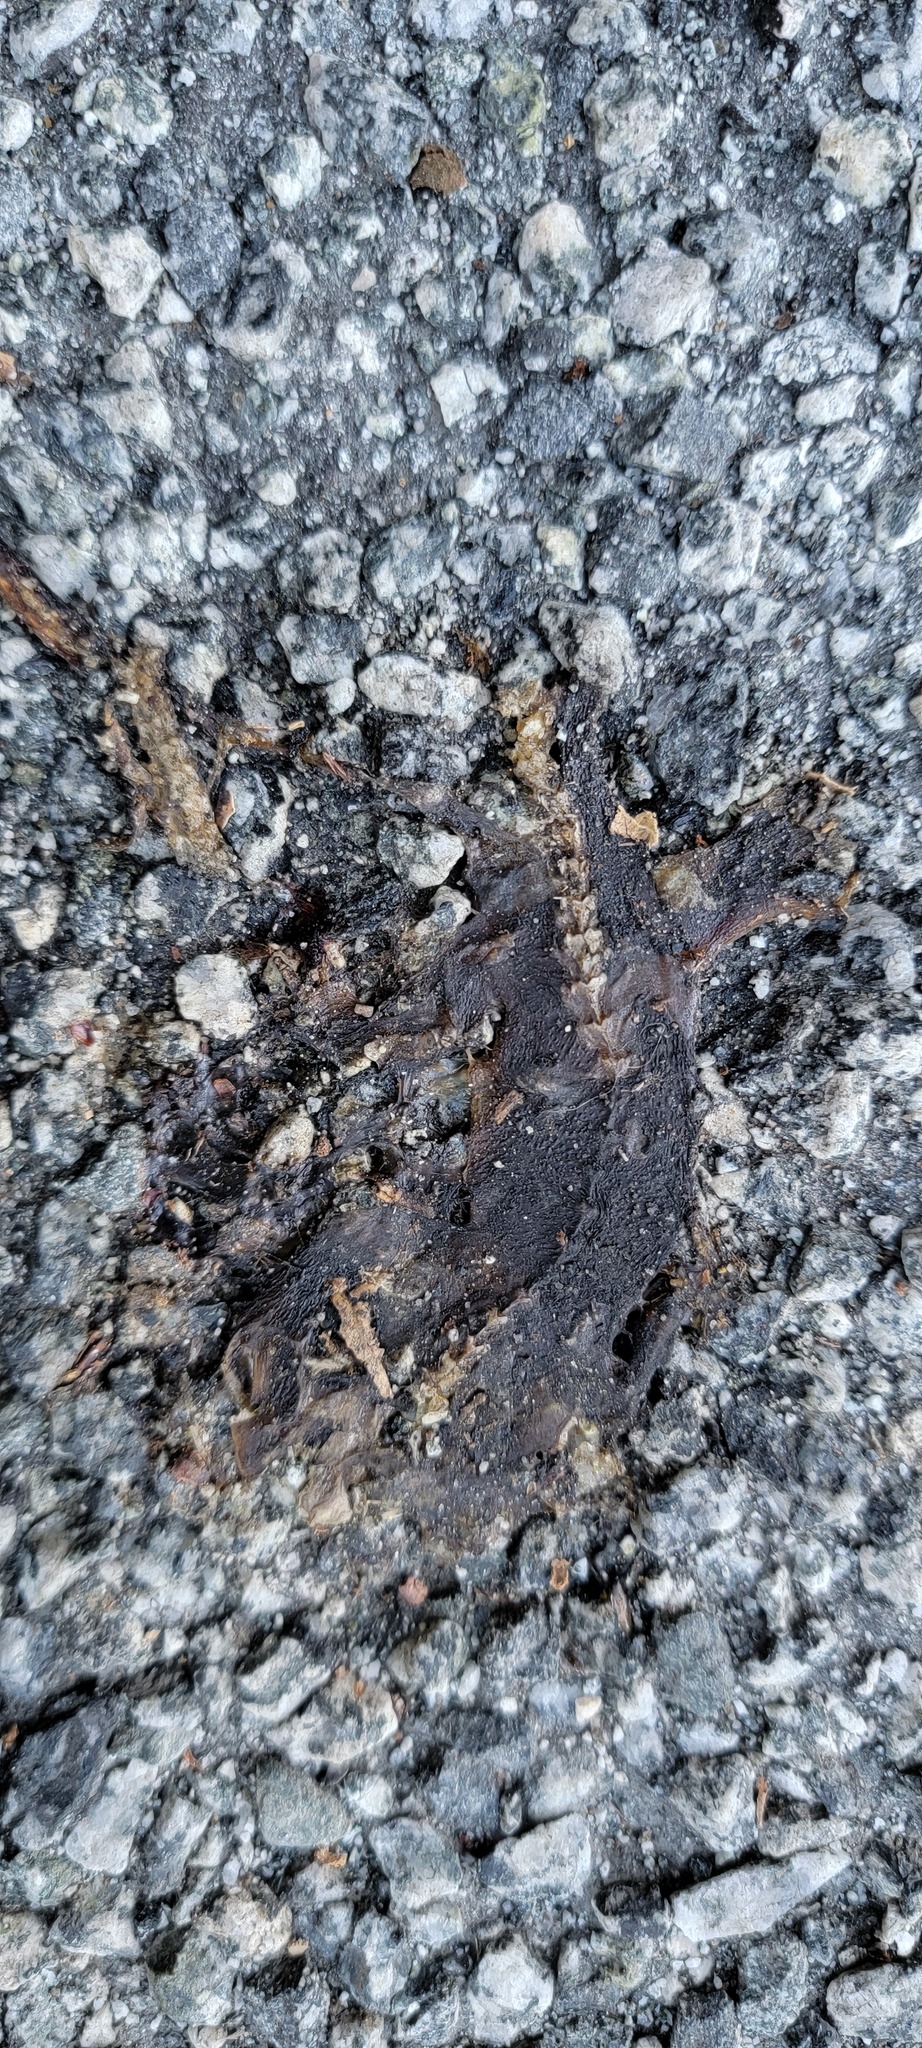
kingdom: Animalia
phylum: Chordata
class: Amphibia
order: Caudata
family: Salamandridae
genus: Taricha
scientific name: Taricha
